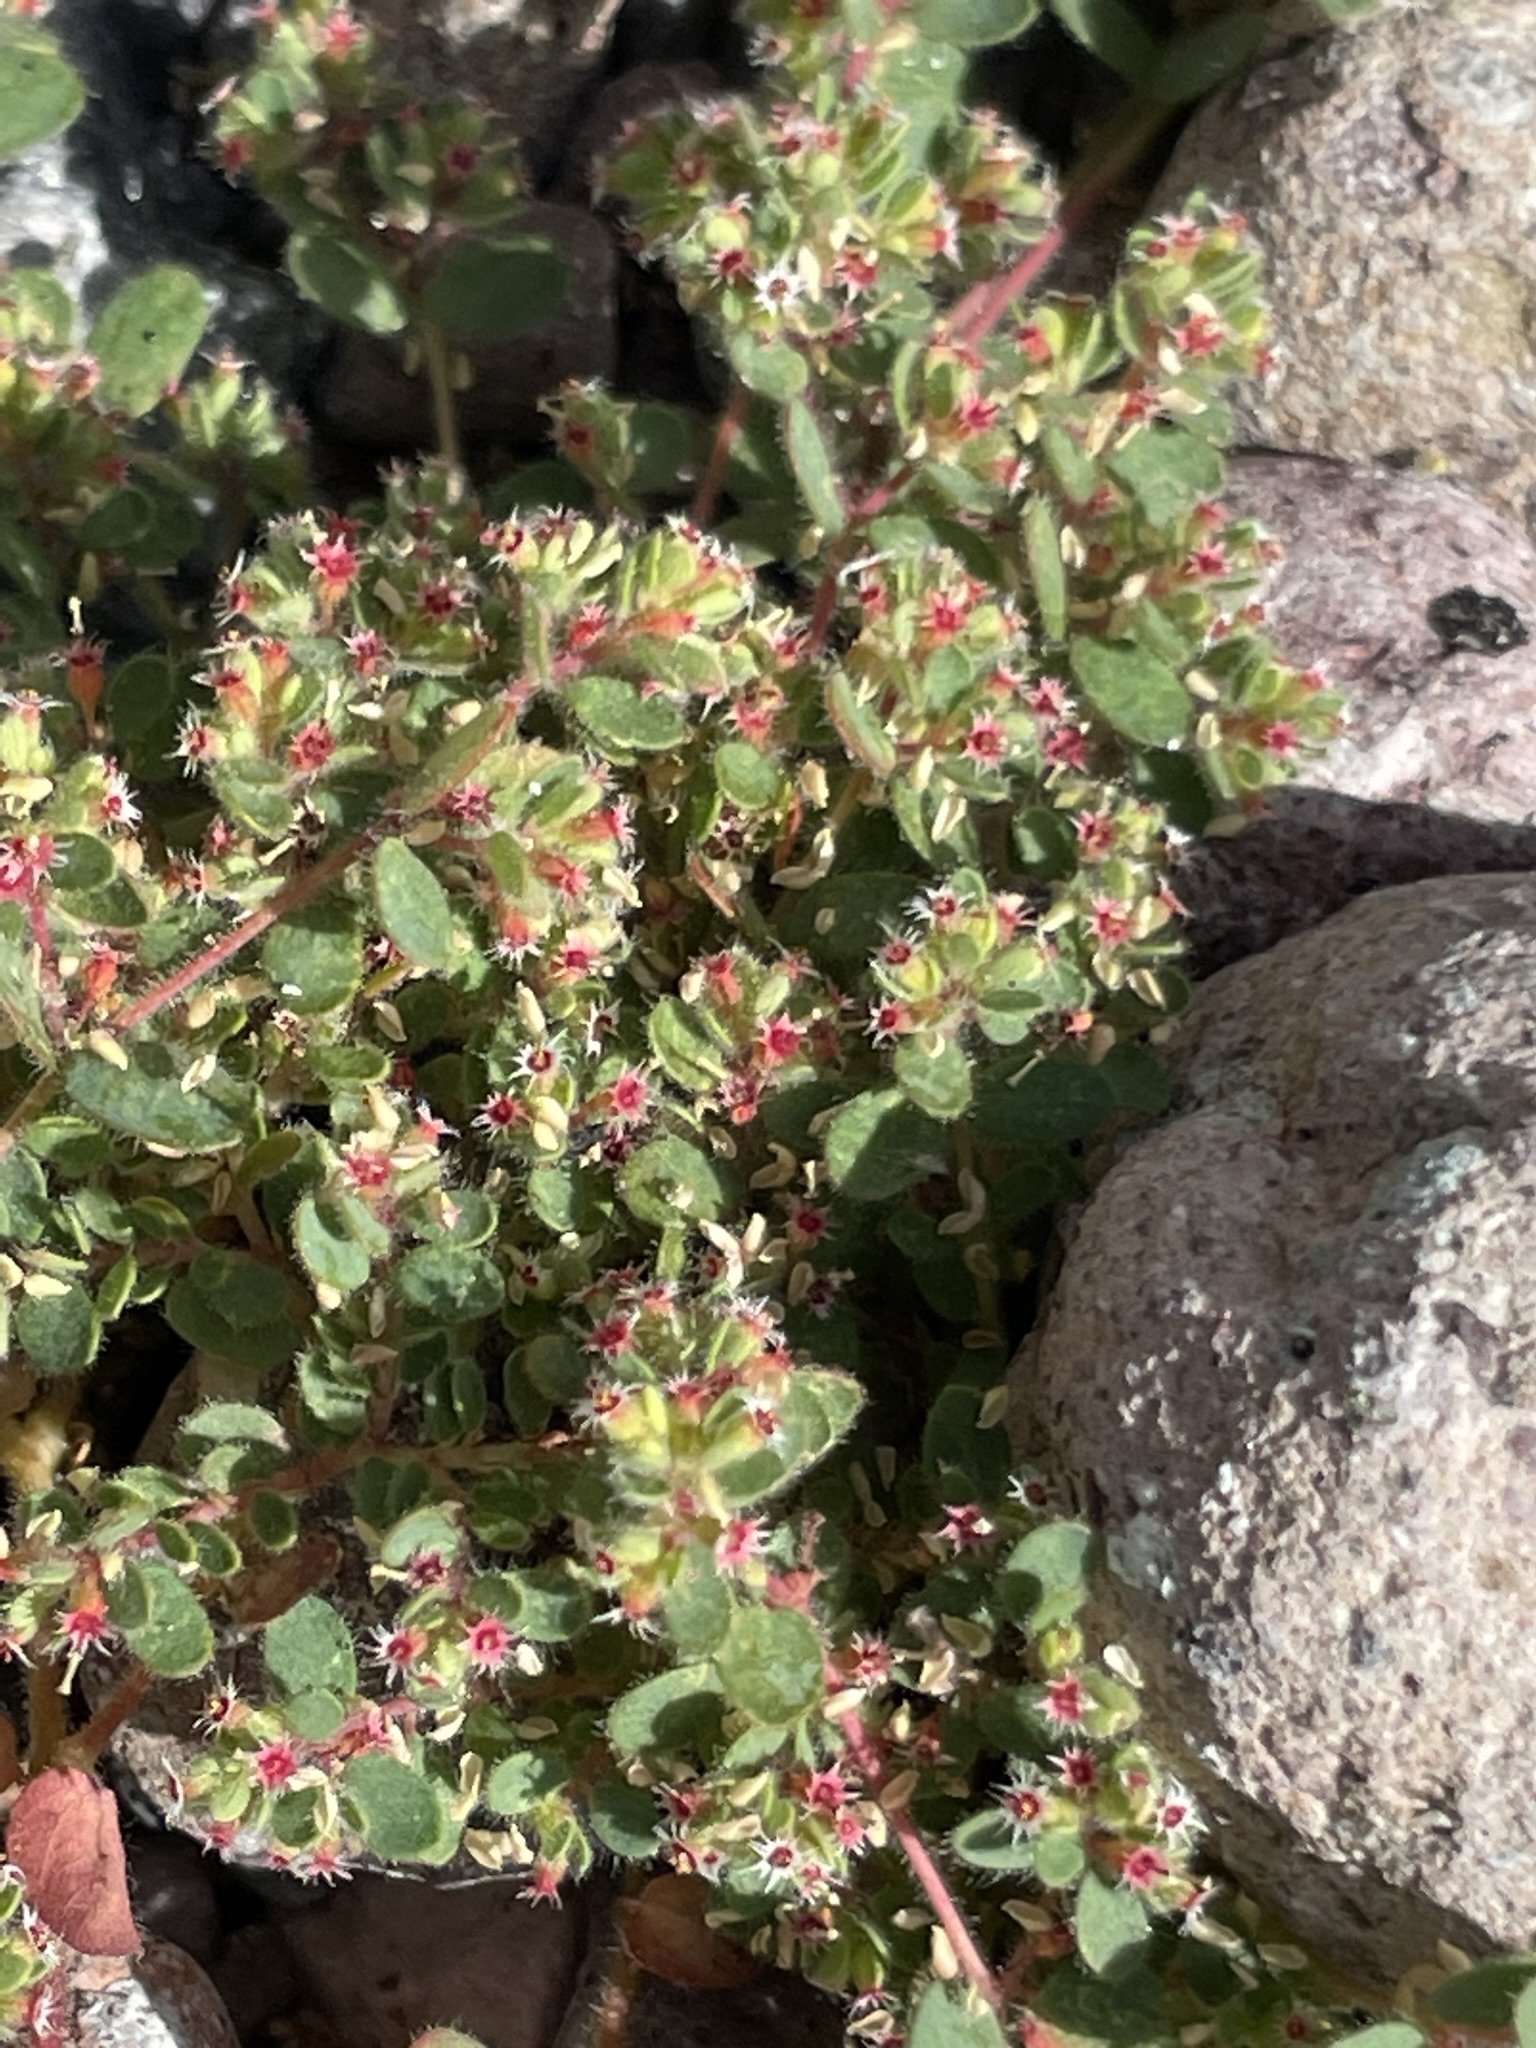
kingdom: Plantae
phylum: Tracheophyta
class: Magnoliopsida
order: Malpighiales
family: Euphorbiaceae
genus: Euphorbia
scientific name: Euphorbia setiloba
